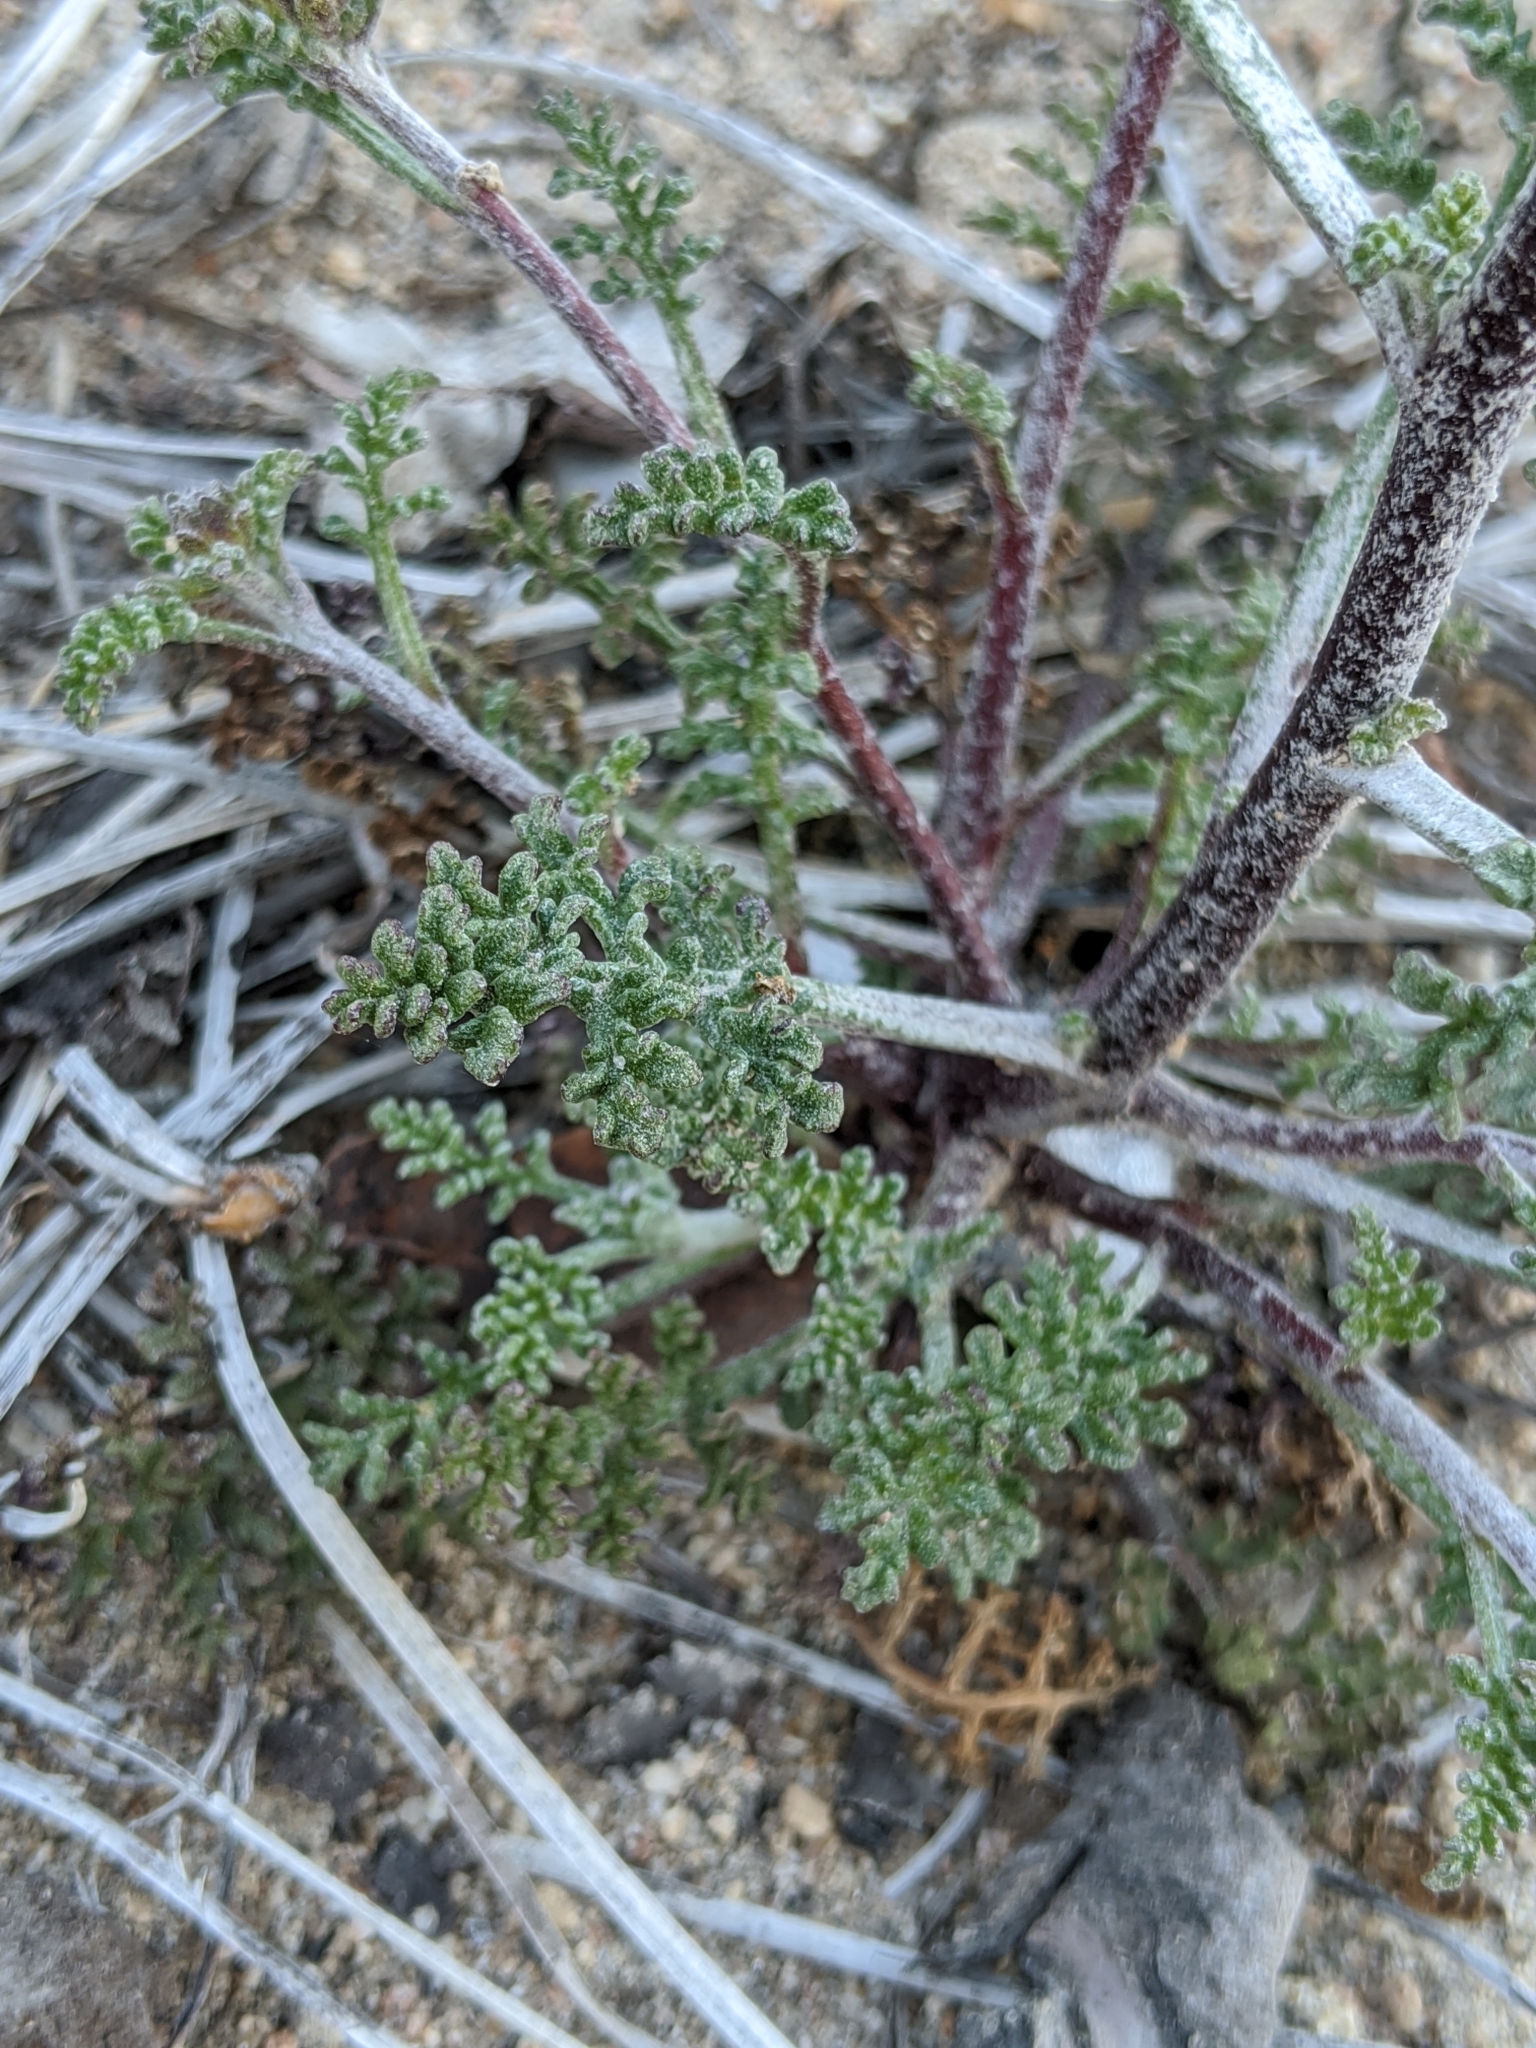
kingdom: Plantae
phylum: Tracheophyta
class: Magnoliopsida
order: Asterales
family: Asteraceae
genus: Chaenactis
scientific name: Chaenactis douglasii
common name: Hoary pincushion
